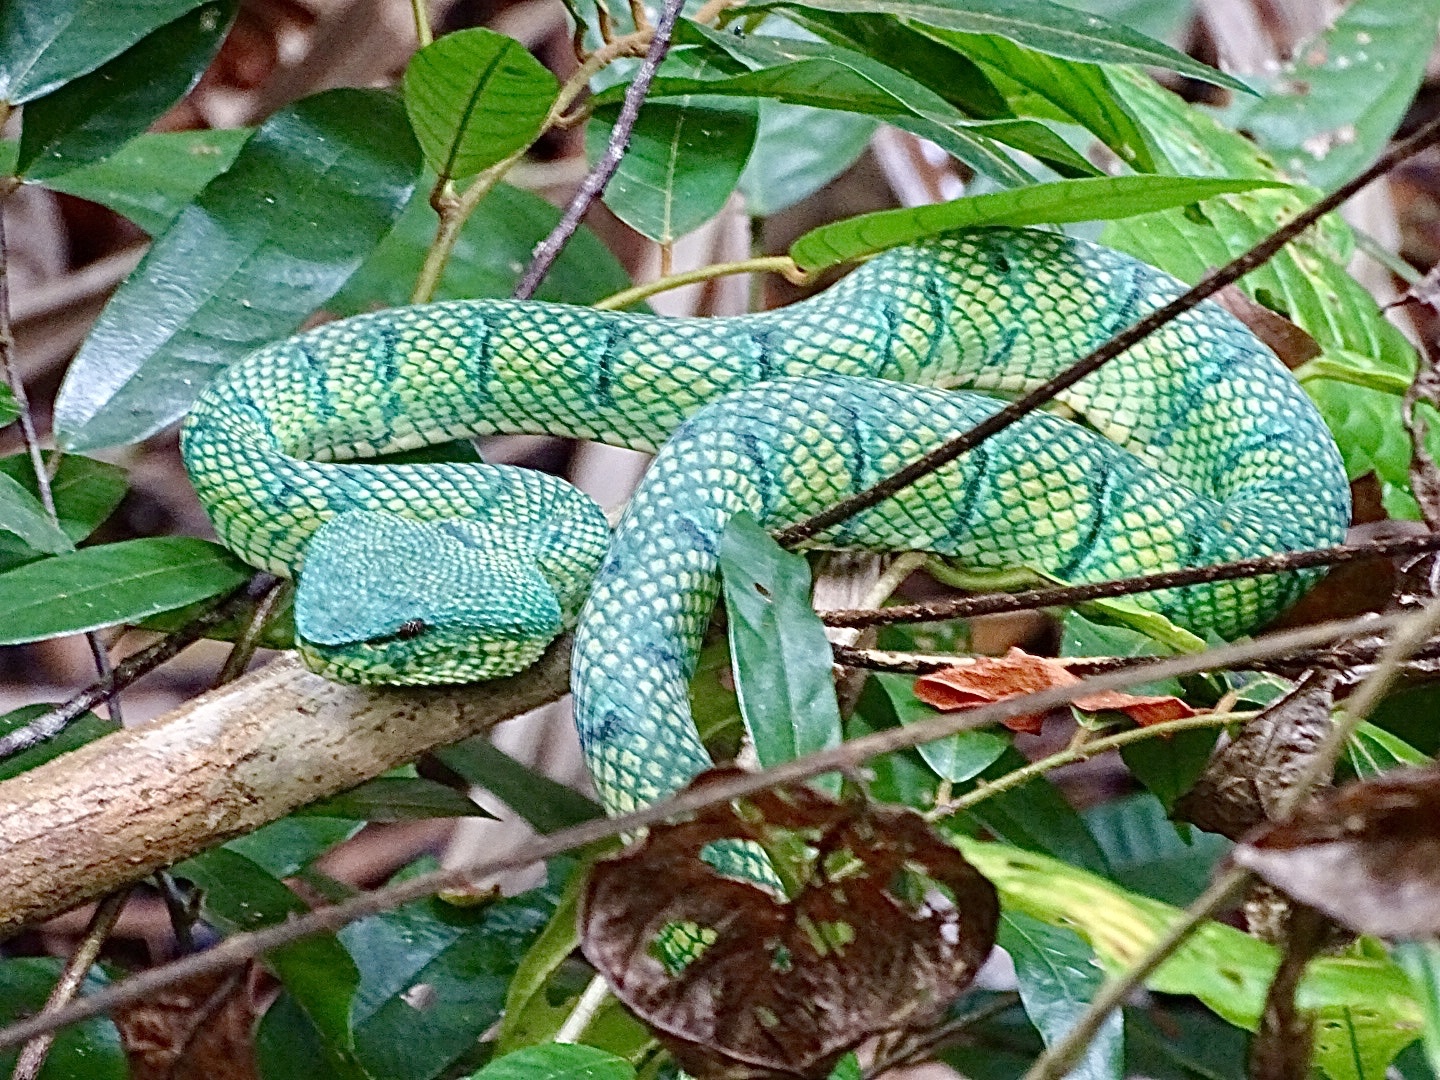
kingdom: Animalia
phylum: Chordata
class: Squamata
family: Viperidae
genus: Tropidolaemus
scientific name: Tropidolaemus subannulatus
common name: North philippine temple pitviper
